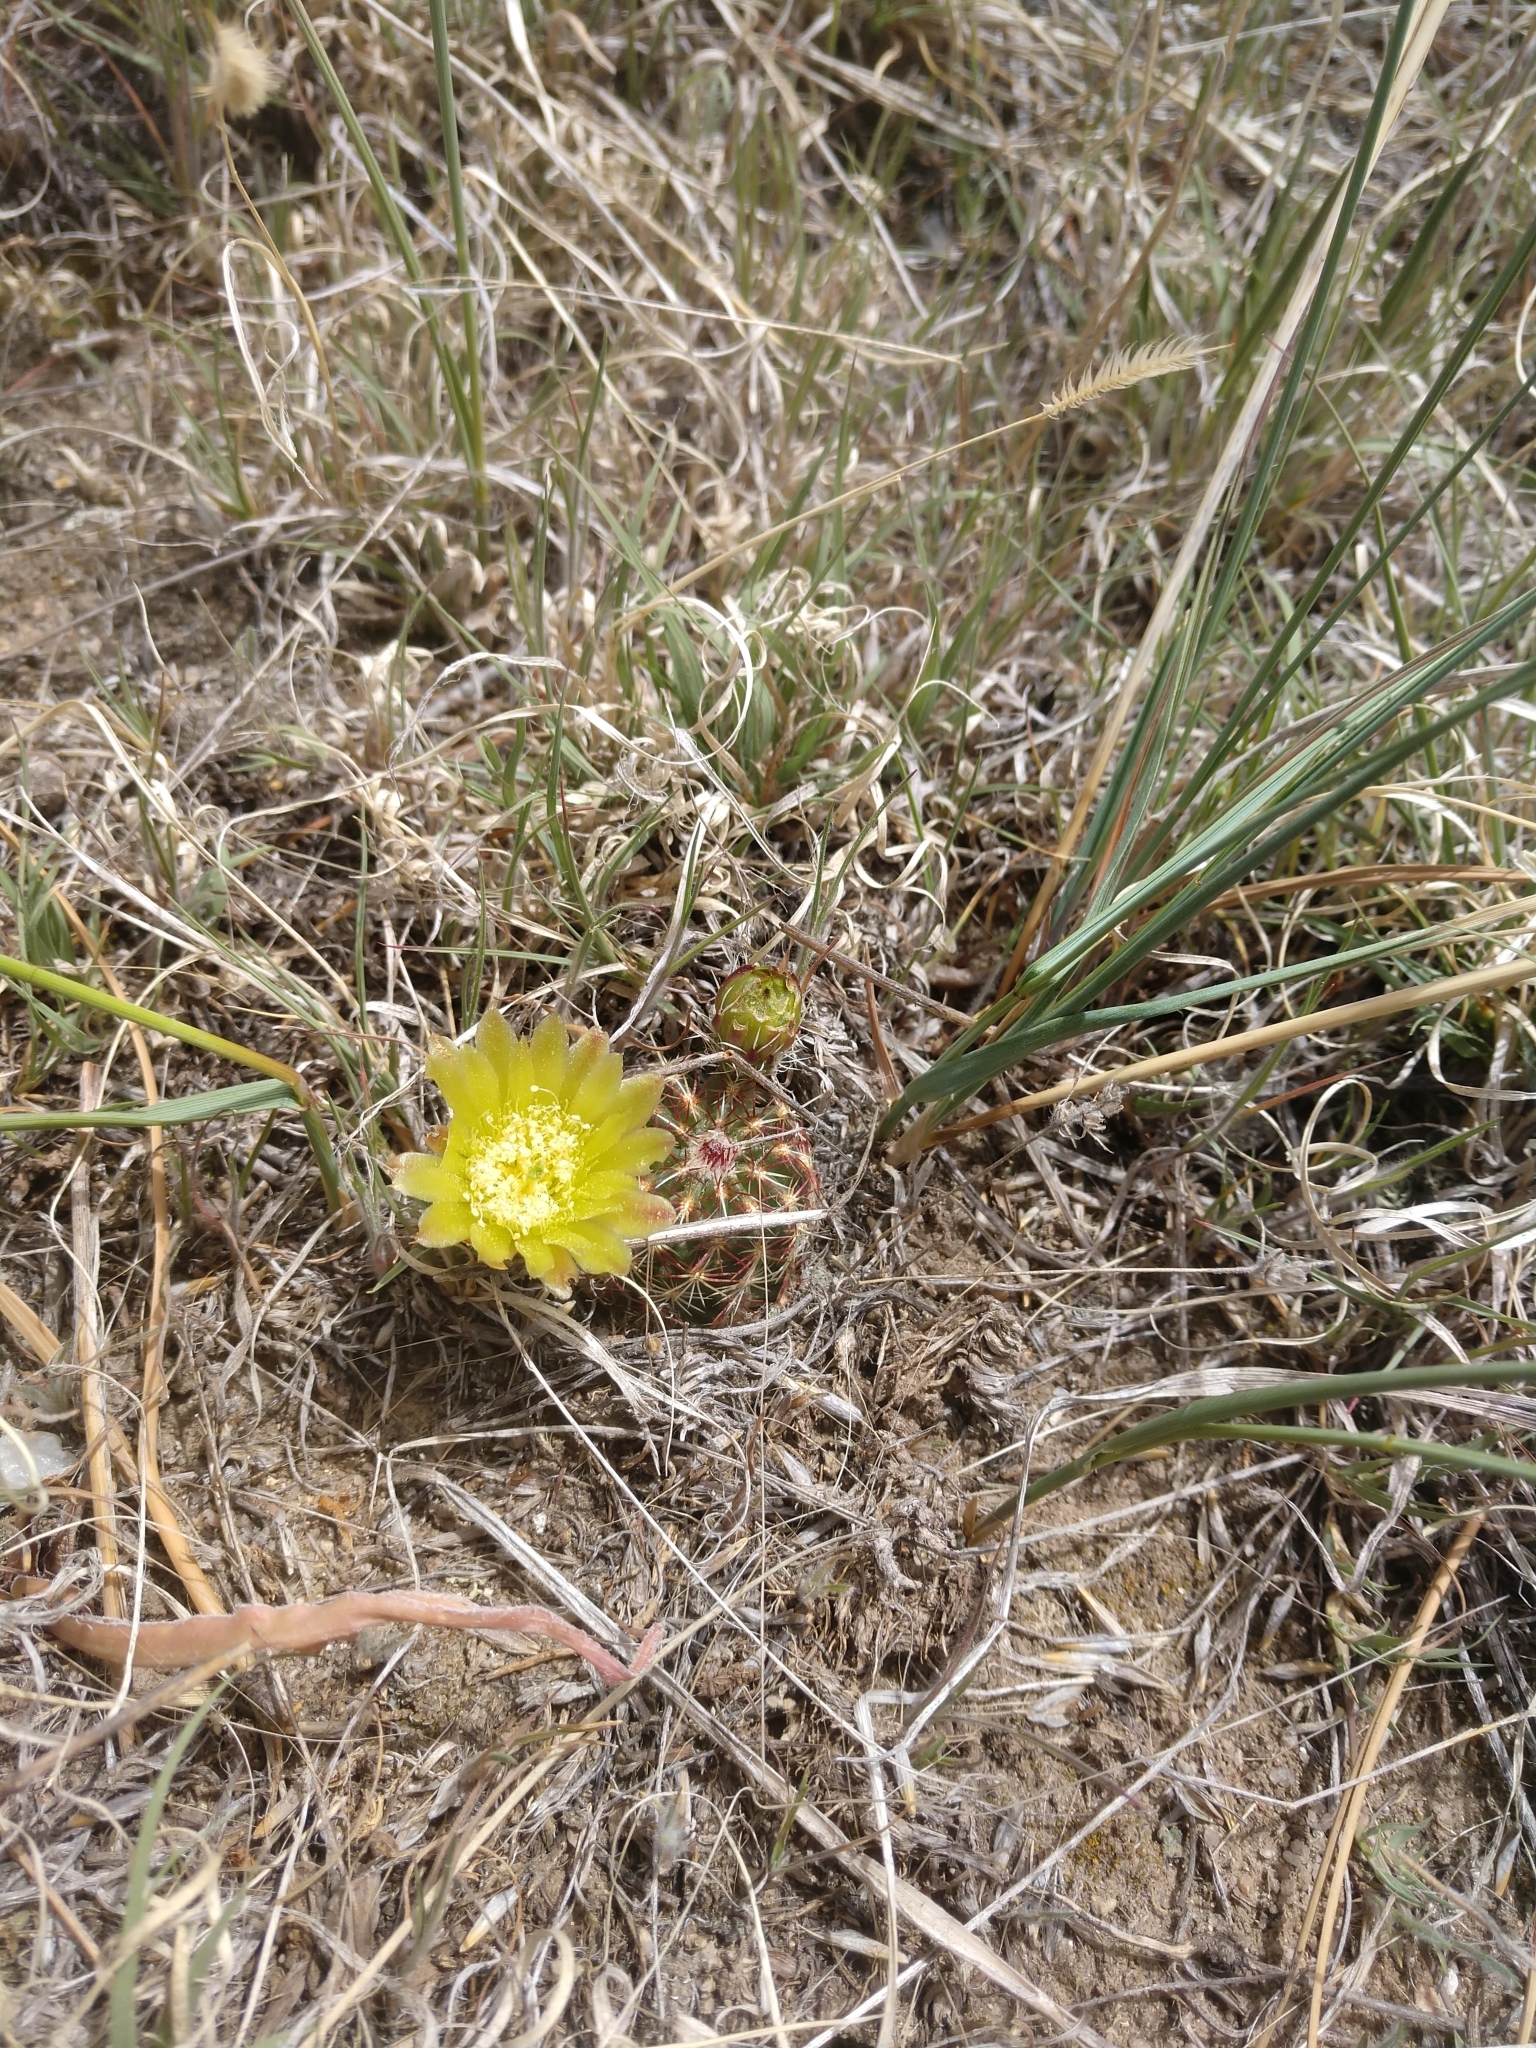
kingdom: Plantae
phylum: Tracheophyta
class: Magnoliopsida
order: Caryophyllales
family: Cactaceae
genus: Echinocereus
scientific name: Echinocereus viridiflorus
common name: Nylon hedgehog cactus
